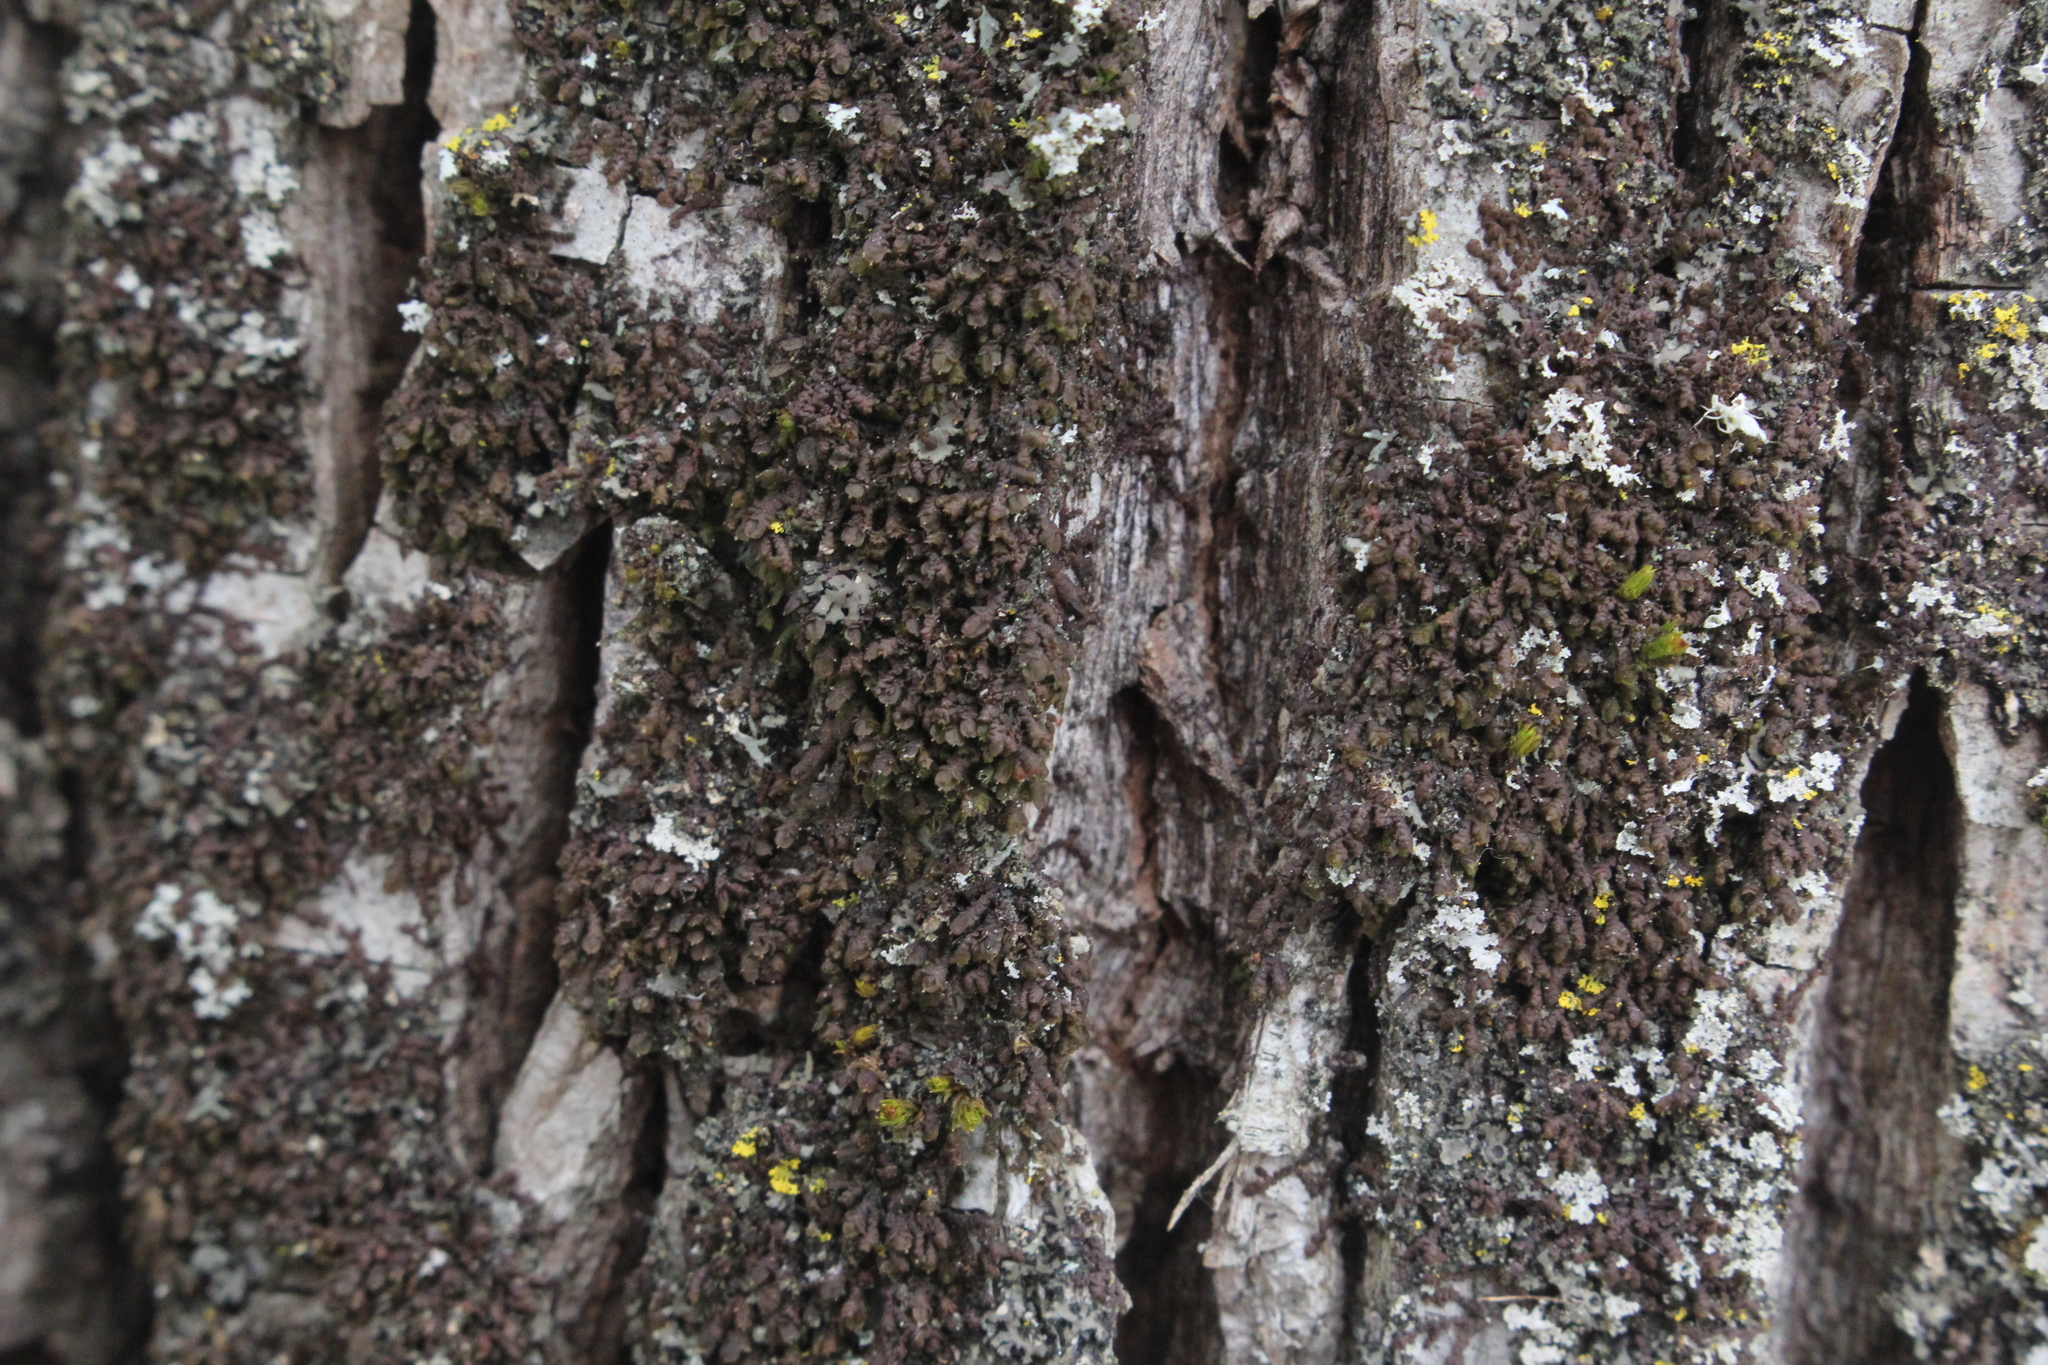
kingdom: Plantae
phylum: Marchantiophyta
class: Jungermanniopsida
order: Porellales
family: Frullaniaceae
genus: Frullania
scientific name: Frullania eboracensis
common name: New york scalewort
